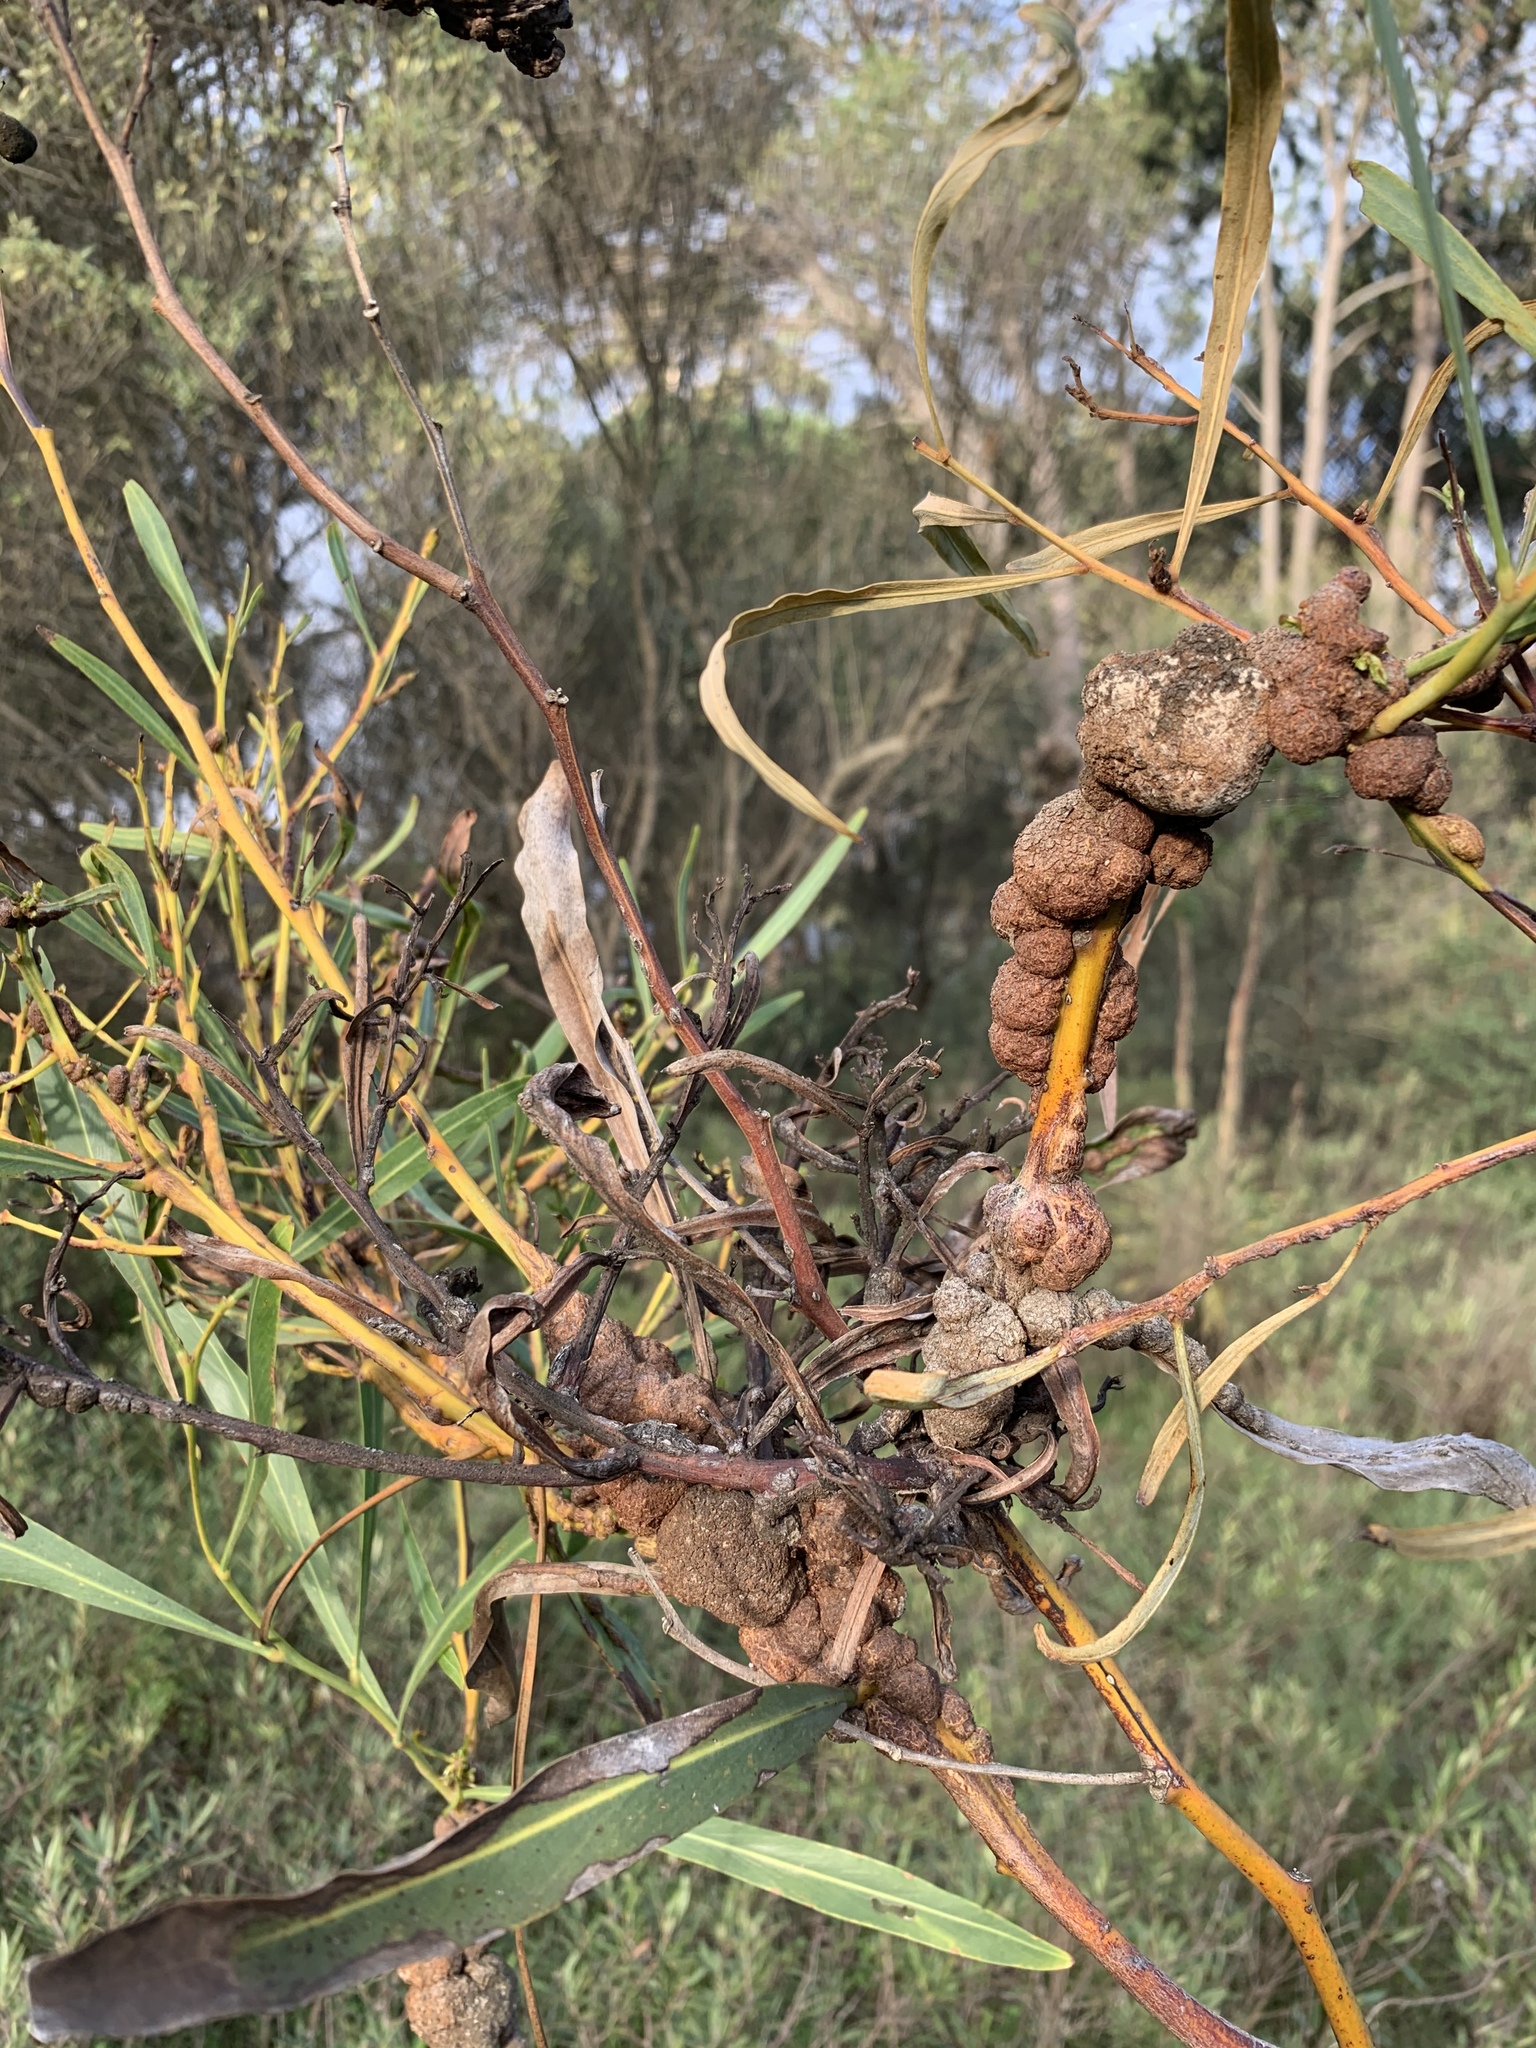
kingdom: Fungi
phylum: Basidiomycota
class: Pucciniomycetes
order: Pucciniales
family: Uromycladiaceae
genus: Uromycladium
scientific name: Uromycladium morrisii
